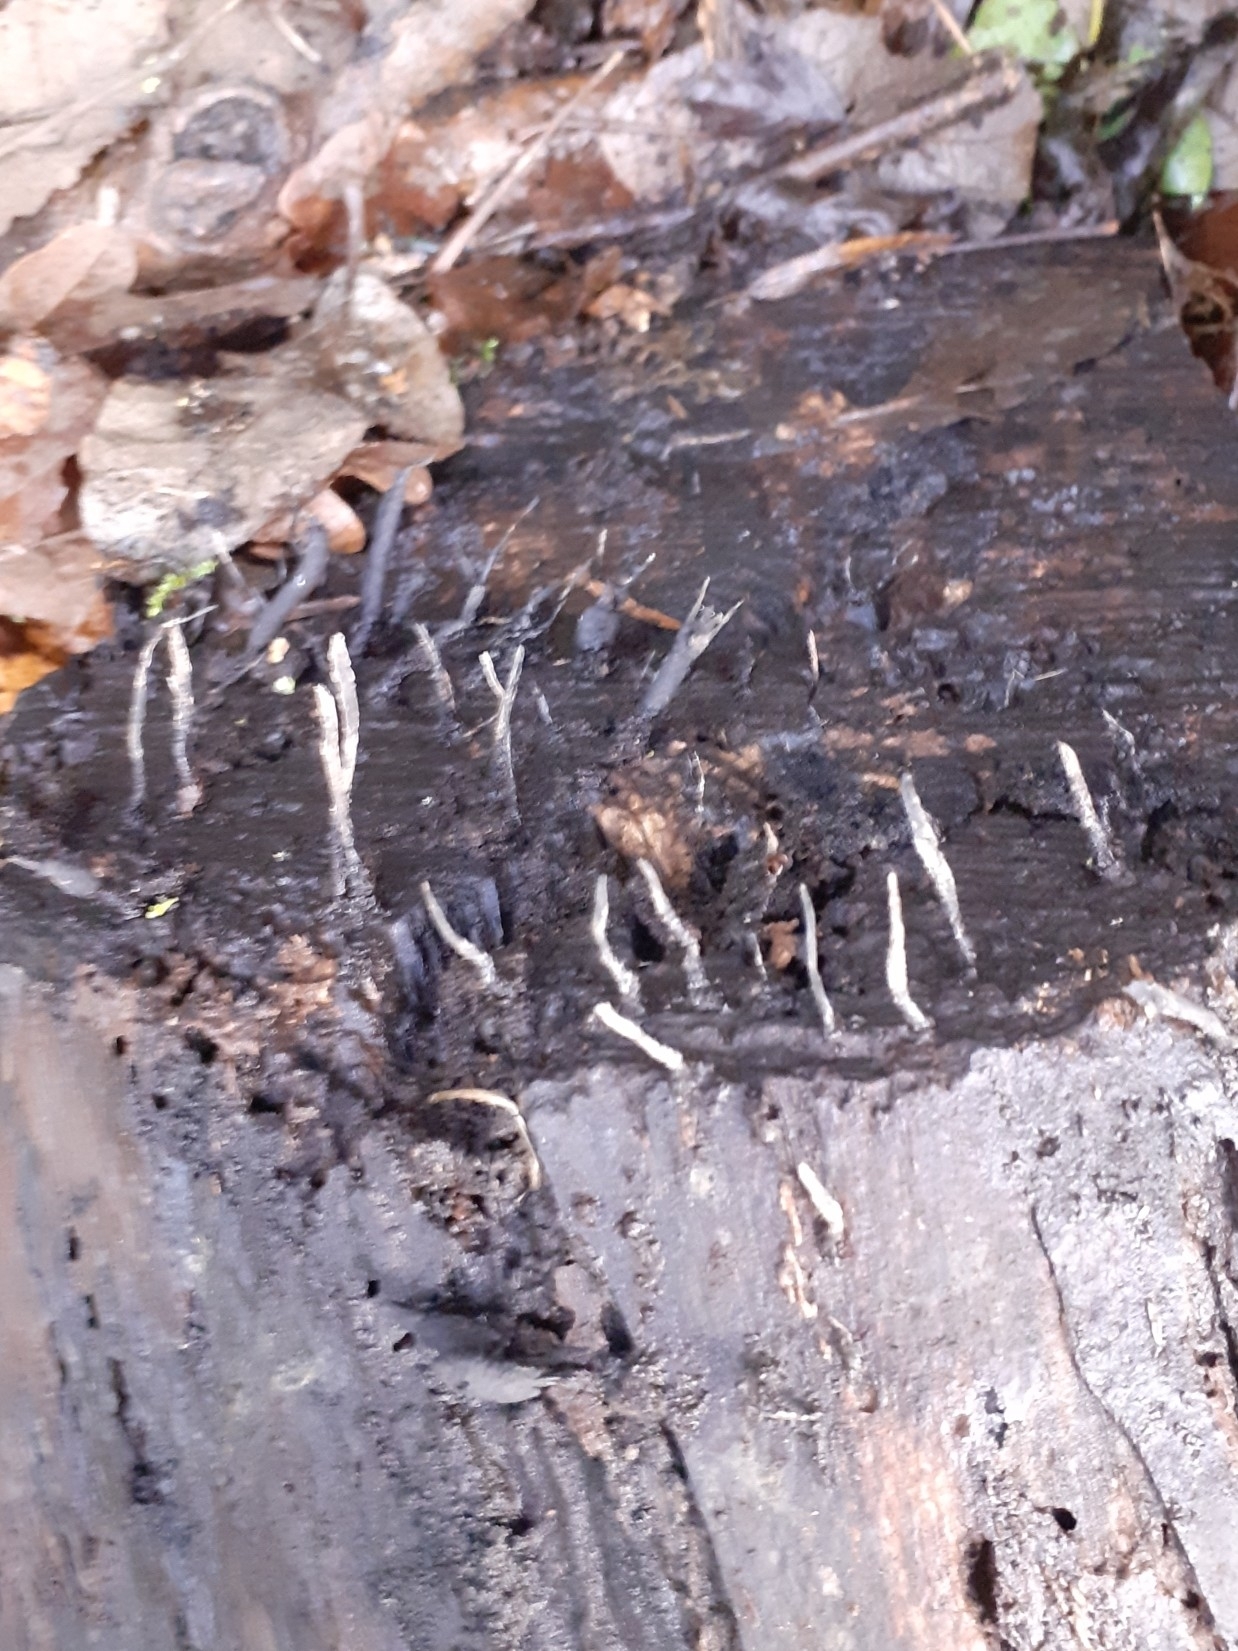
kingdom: Fungi
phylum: Ascomycota
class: Sordariomycetes
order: Xylariales
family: Xylariaceae
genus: Xylaria
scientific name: Xylaria hypoxylon
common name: Candle-snuff fungus
